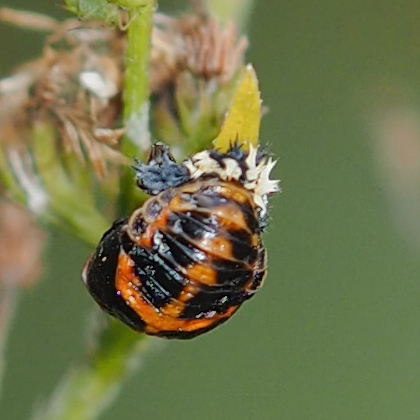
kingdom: Animalia
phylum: Arthropoda
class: Insecta
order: Coleoptera
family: Coccinellidae
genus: Harmonia
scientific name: Harmonia axyridis
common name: Harlequin ladybird
